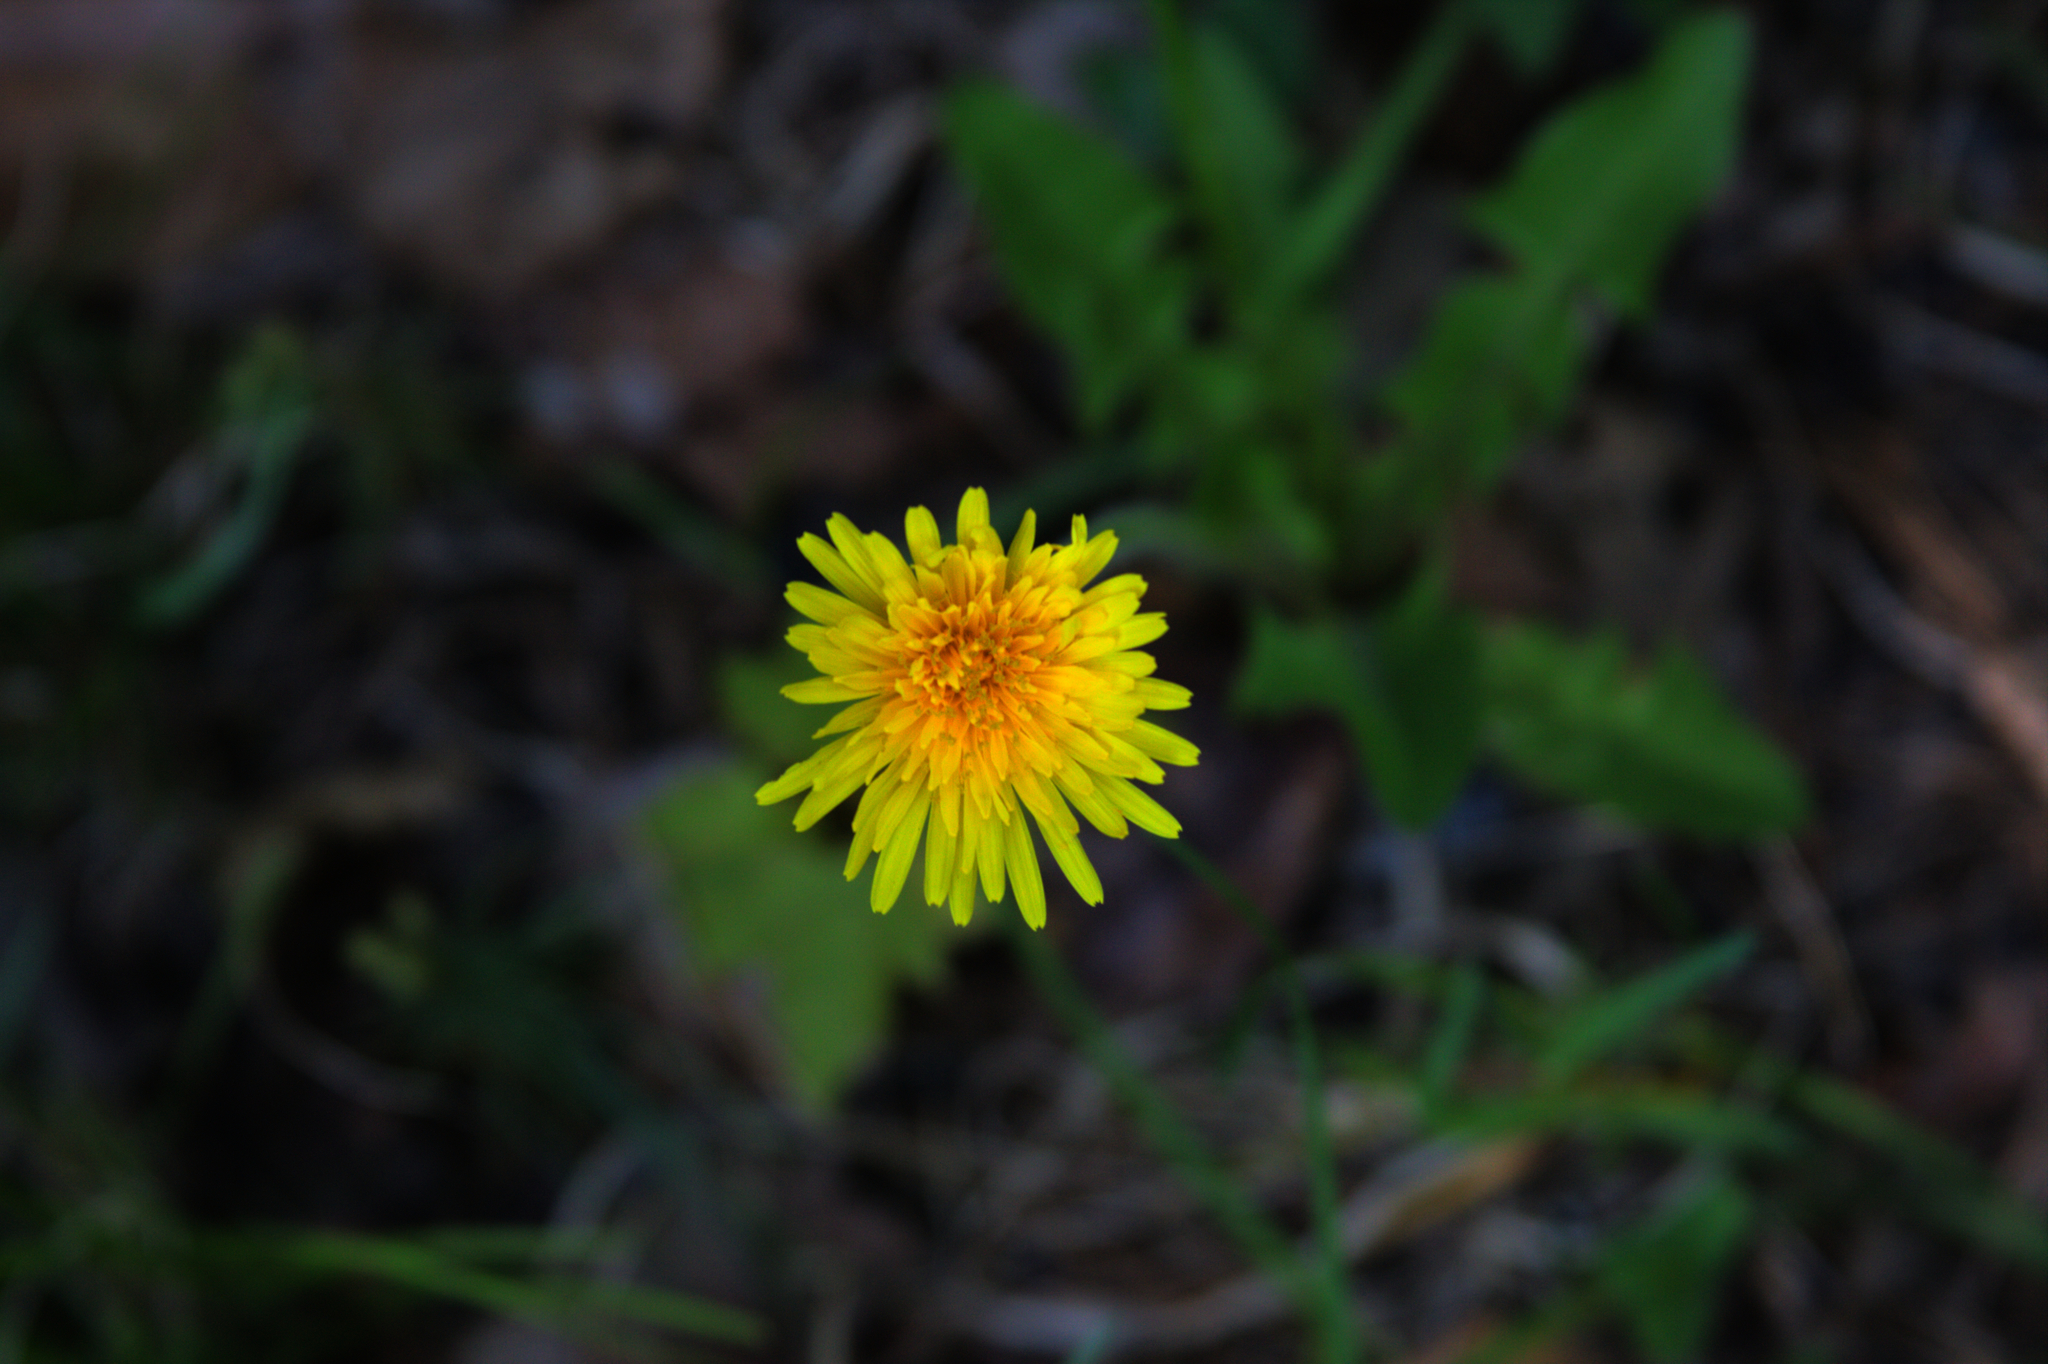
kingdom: Plantae
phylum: Tracheophyta
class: Magnoliopsida
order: Asterales
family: Asteraceae
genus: Taraxacum
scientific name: Taraxacum officinale
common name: Common dandelion
